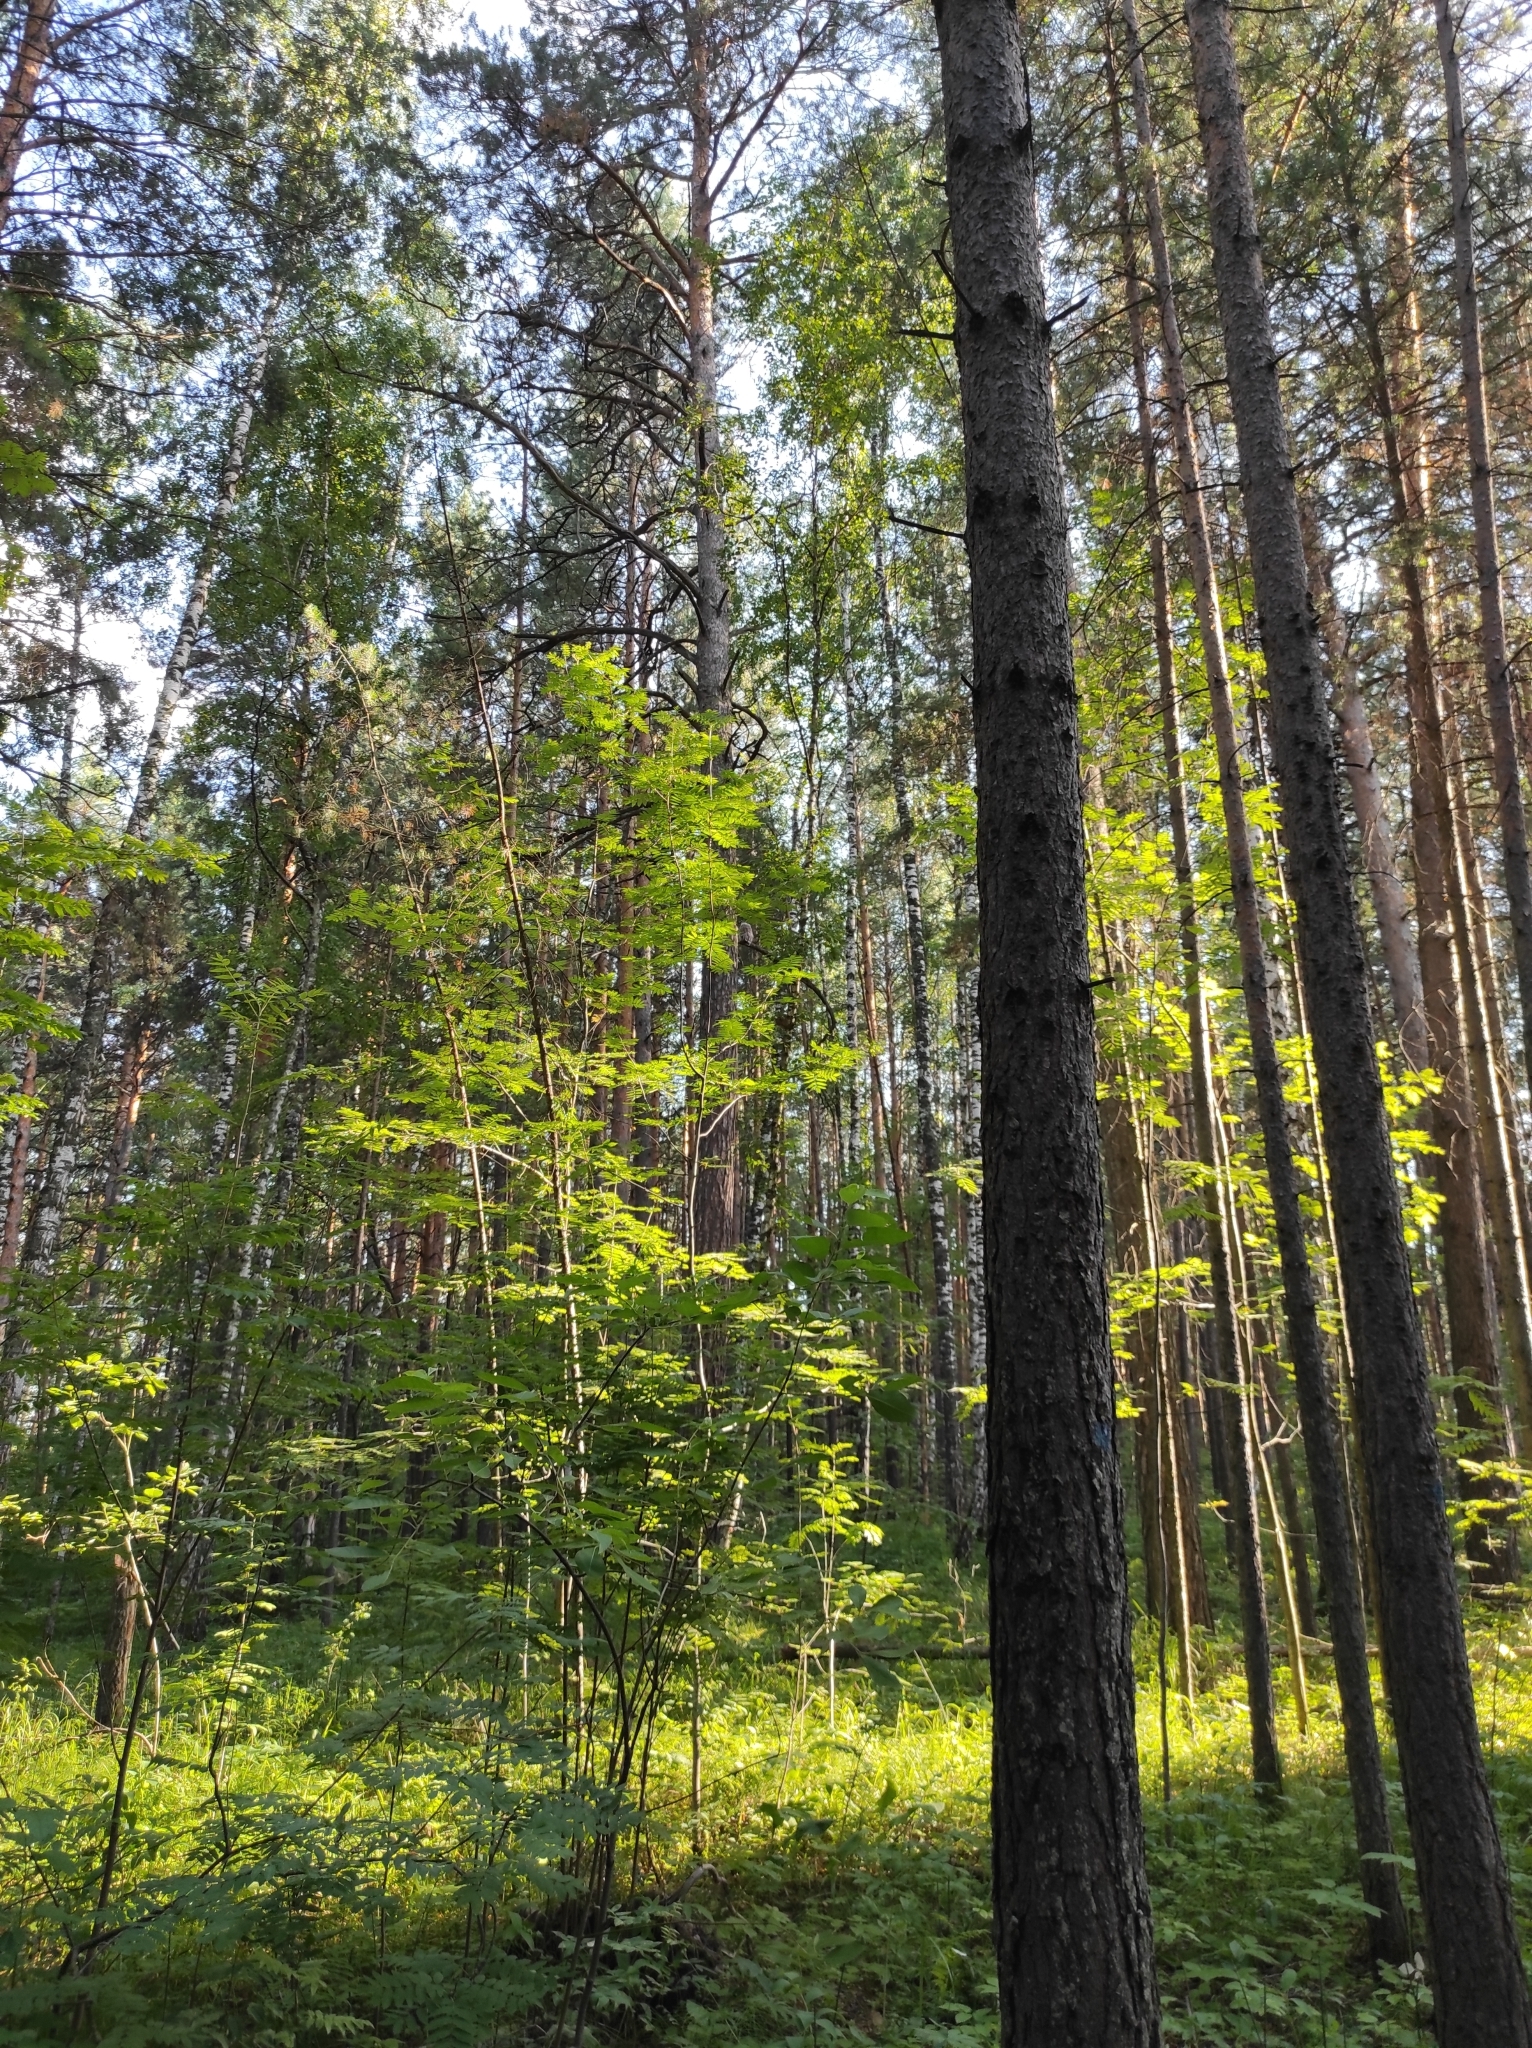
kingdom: Plantae
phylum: Tracheophyta
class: Pinopsida
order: Pinales
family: Pinaceae
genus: Pinus
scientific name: Pinus sylvestris
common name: Scots pine
